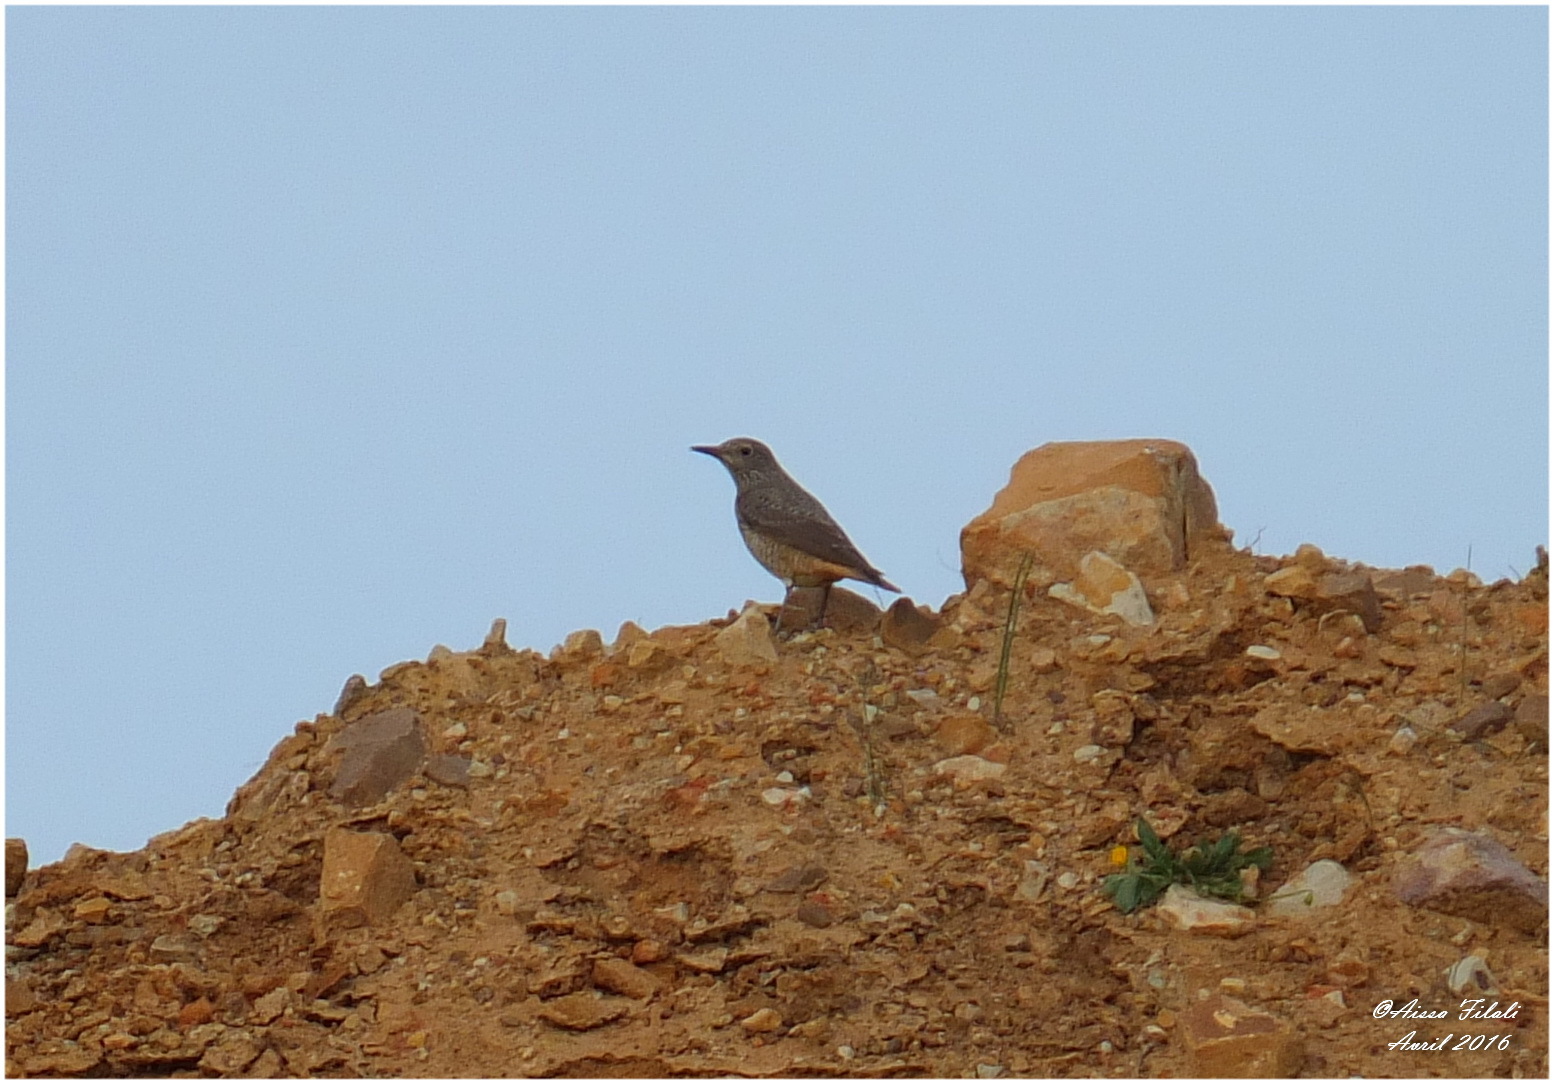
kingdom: Animalia
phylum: Chordata
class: Aves
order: Passeriformes
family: Muscicapidae
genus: Monticola
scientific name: Monticola saxatilis
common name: Rufous-tailed rock thrush
